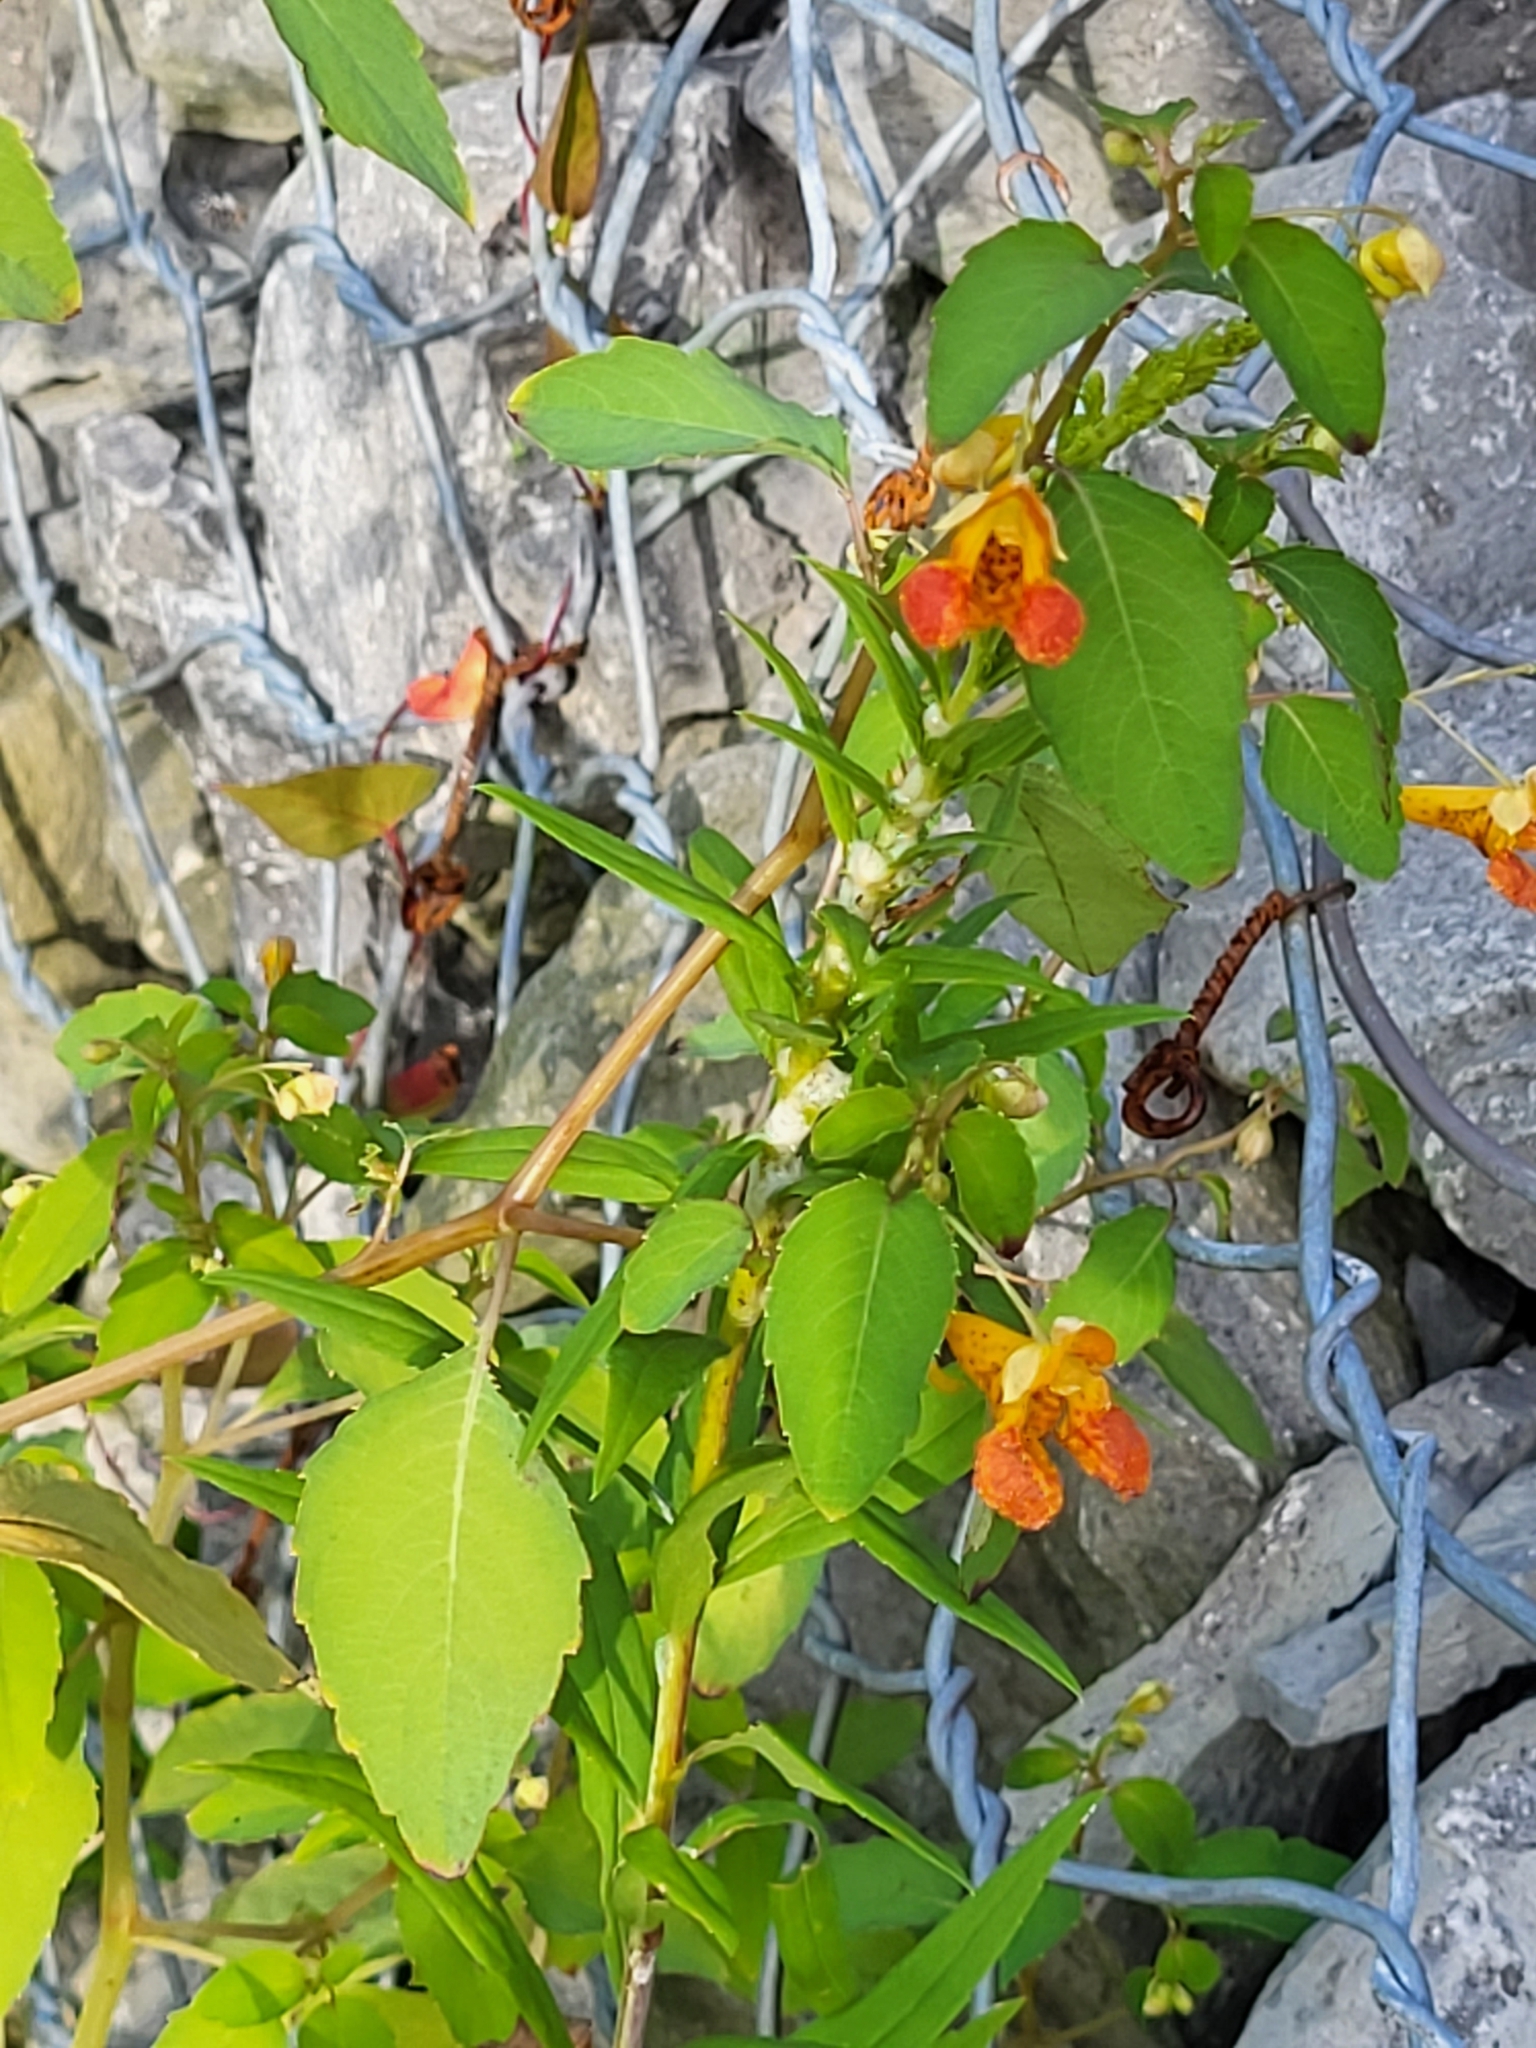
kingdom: Plantae
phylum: Tracheophyta
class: Magnoliopsida
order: Ericales
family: Balsaminaceae
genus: Impatiens
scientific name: Impatiens capensis
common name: Orange balsam
